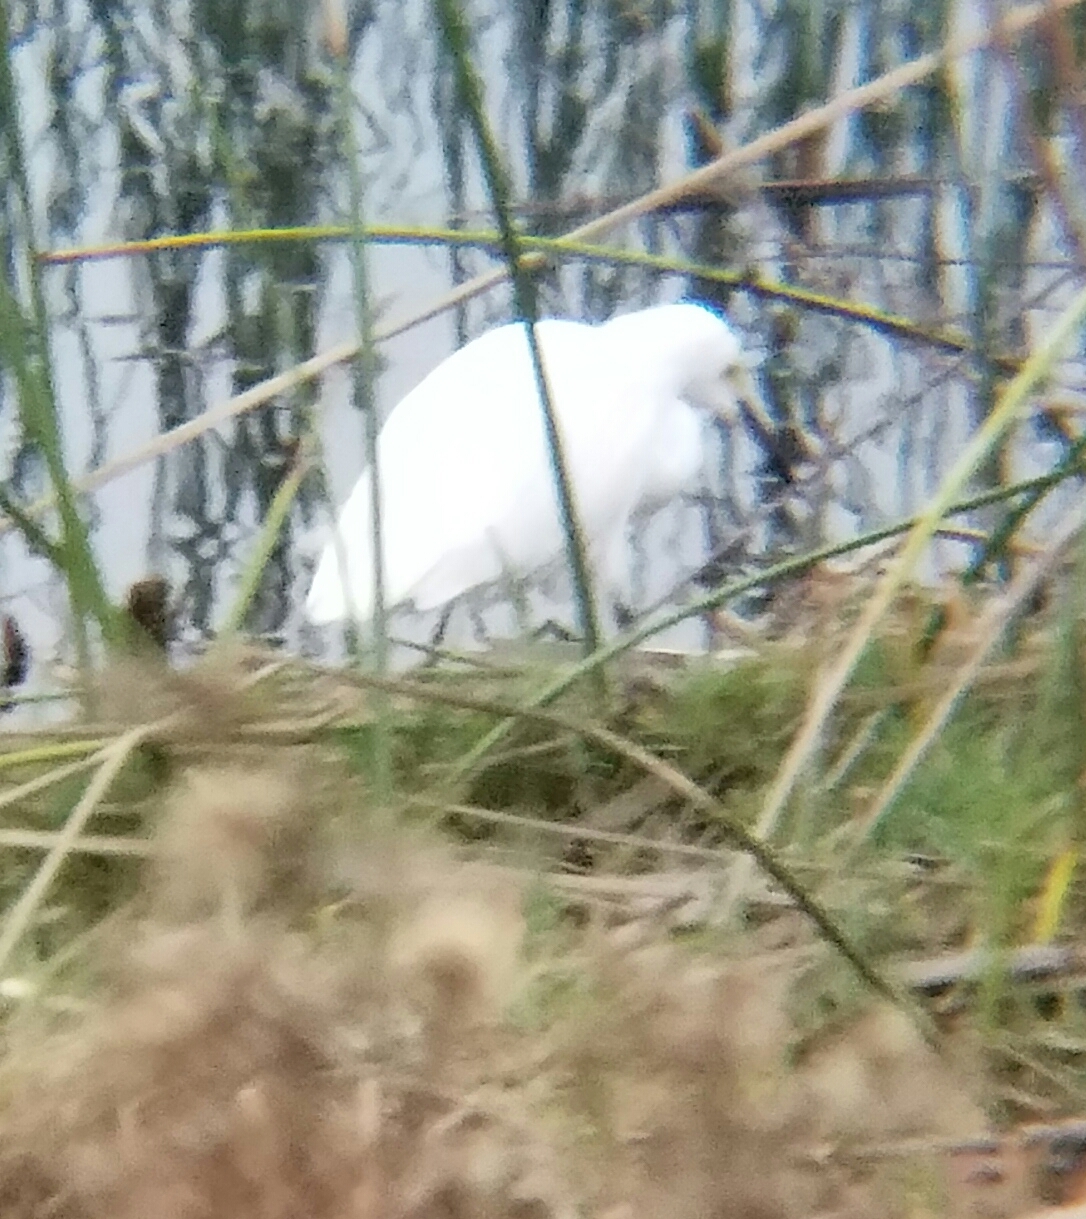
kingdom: Animalia
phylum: Chordata
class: Aves
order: Pelecaniformes
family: Ardeidae
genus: Egretta
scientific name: Egretta thula
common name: Snowy egret
